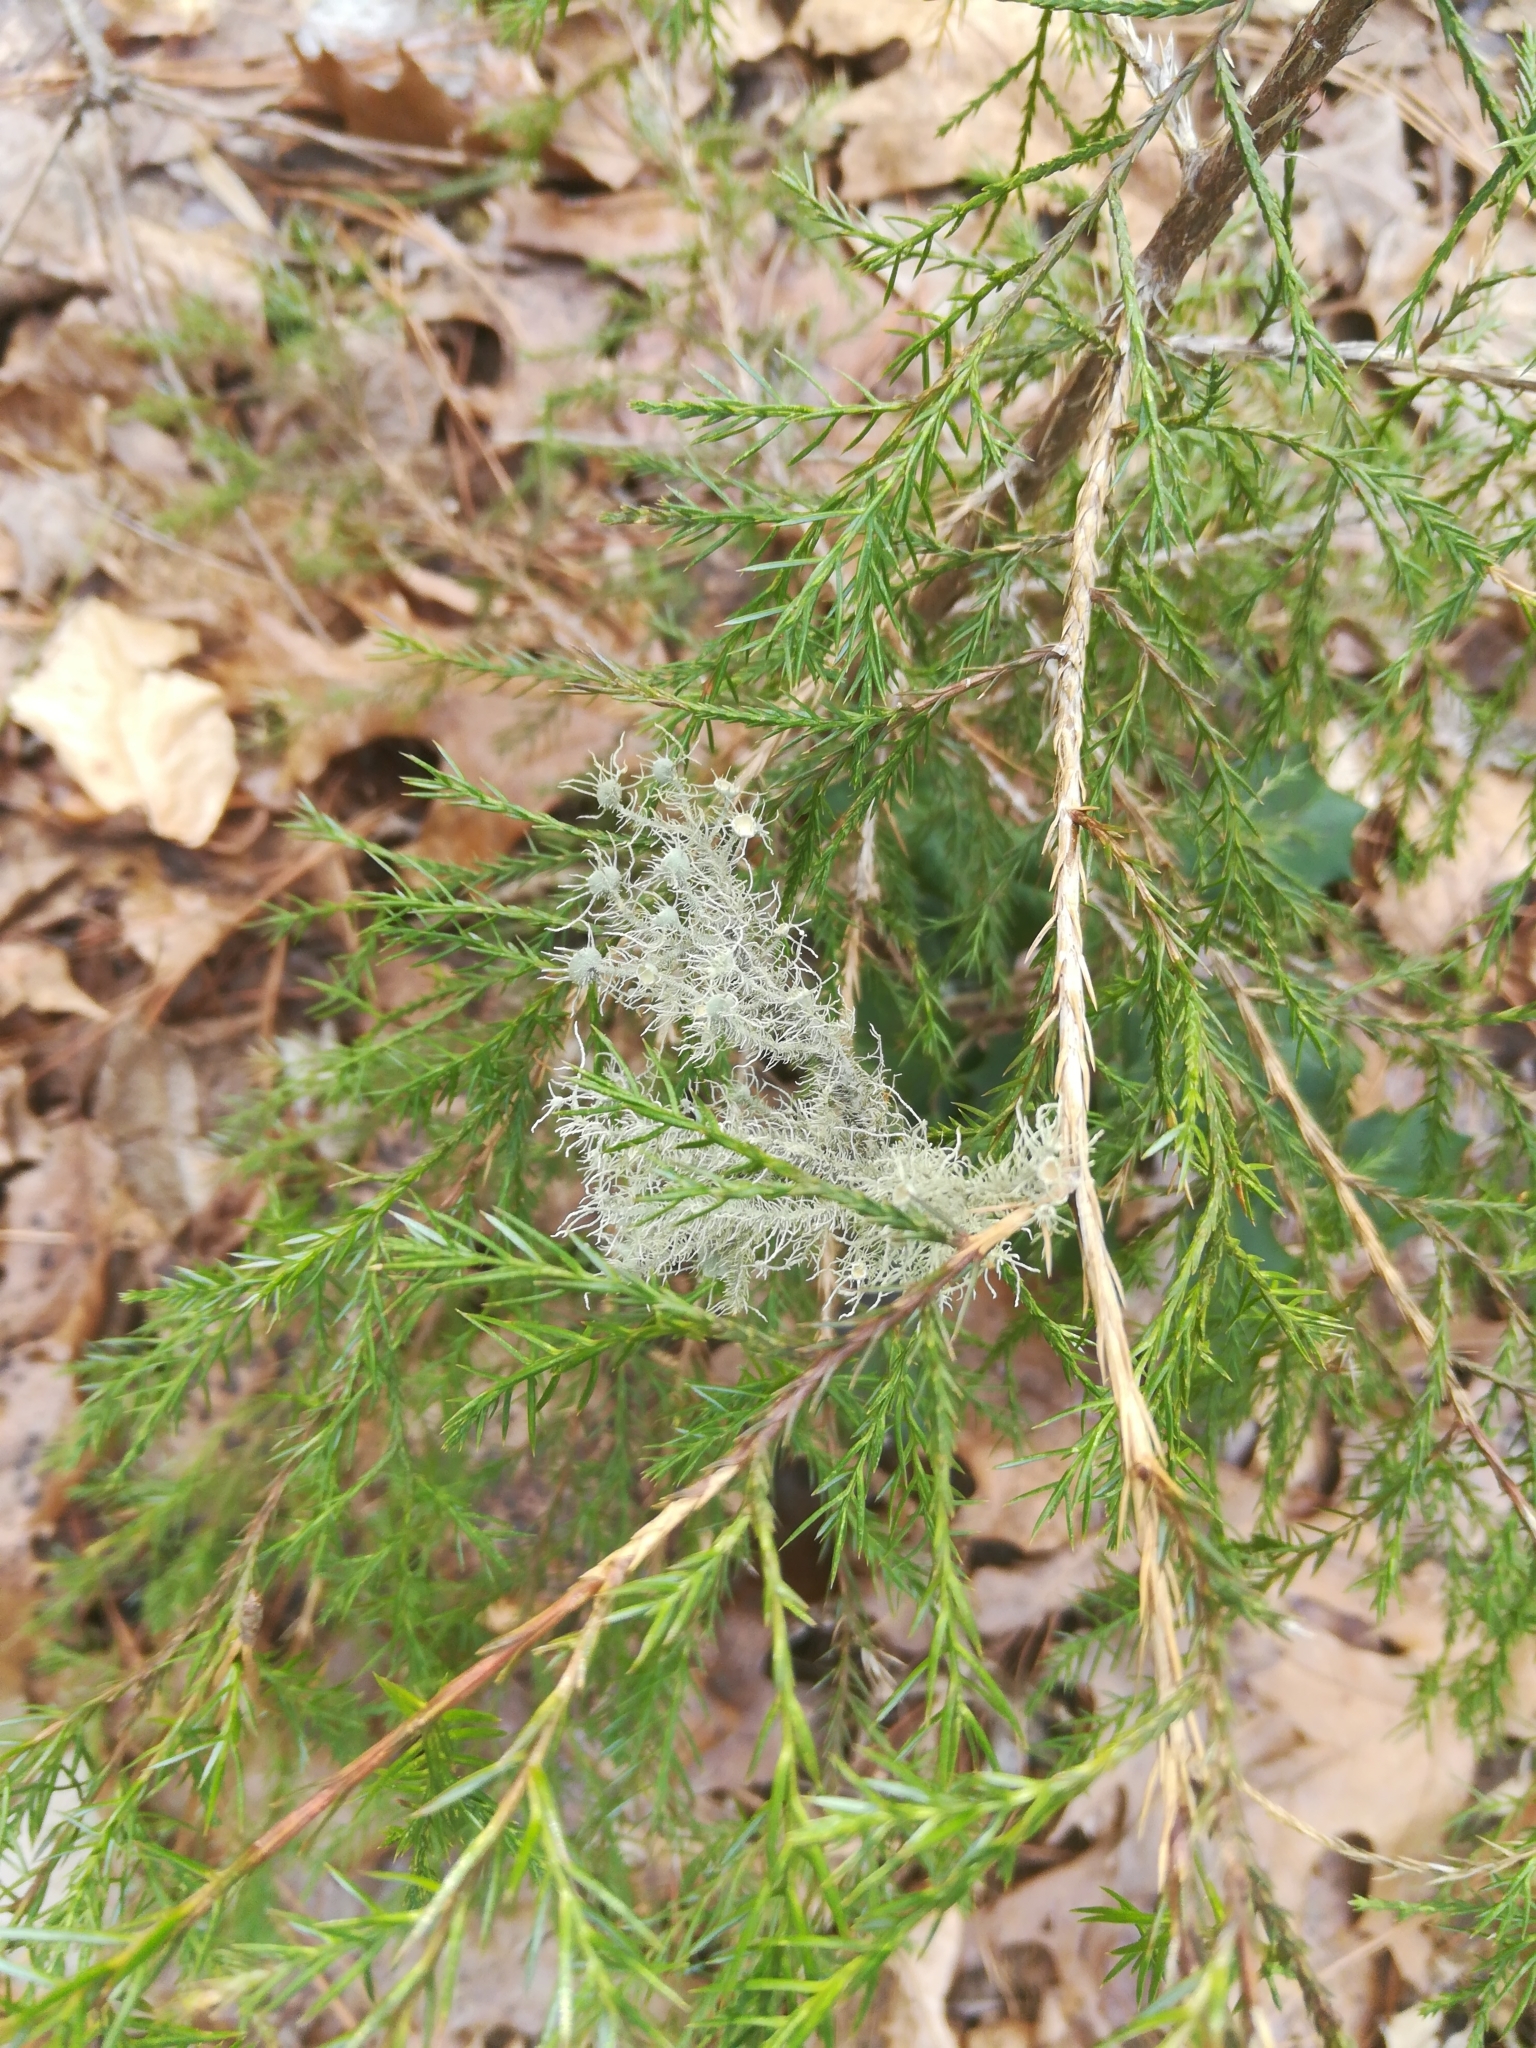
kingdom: Fungi
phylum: Ascomycota
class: Lecanoromycetes
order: Lecanorales
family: Parmeliaceae
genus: Usnea
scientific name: Usnea strigosa
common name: Bushy beard lichen
